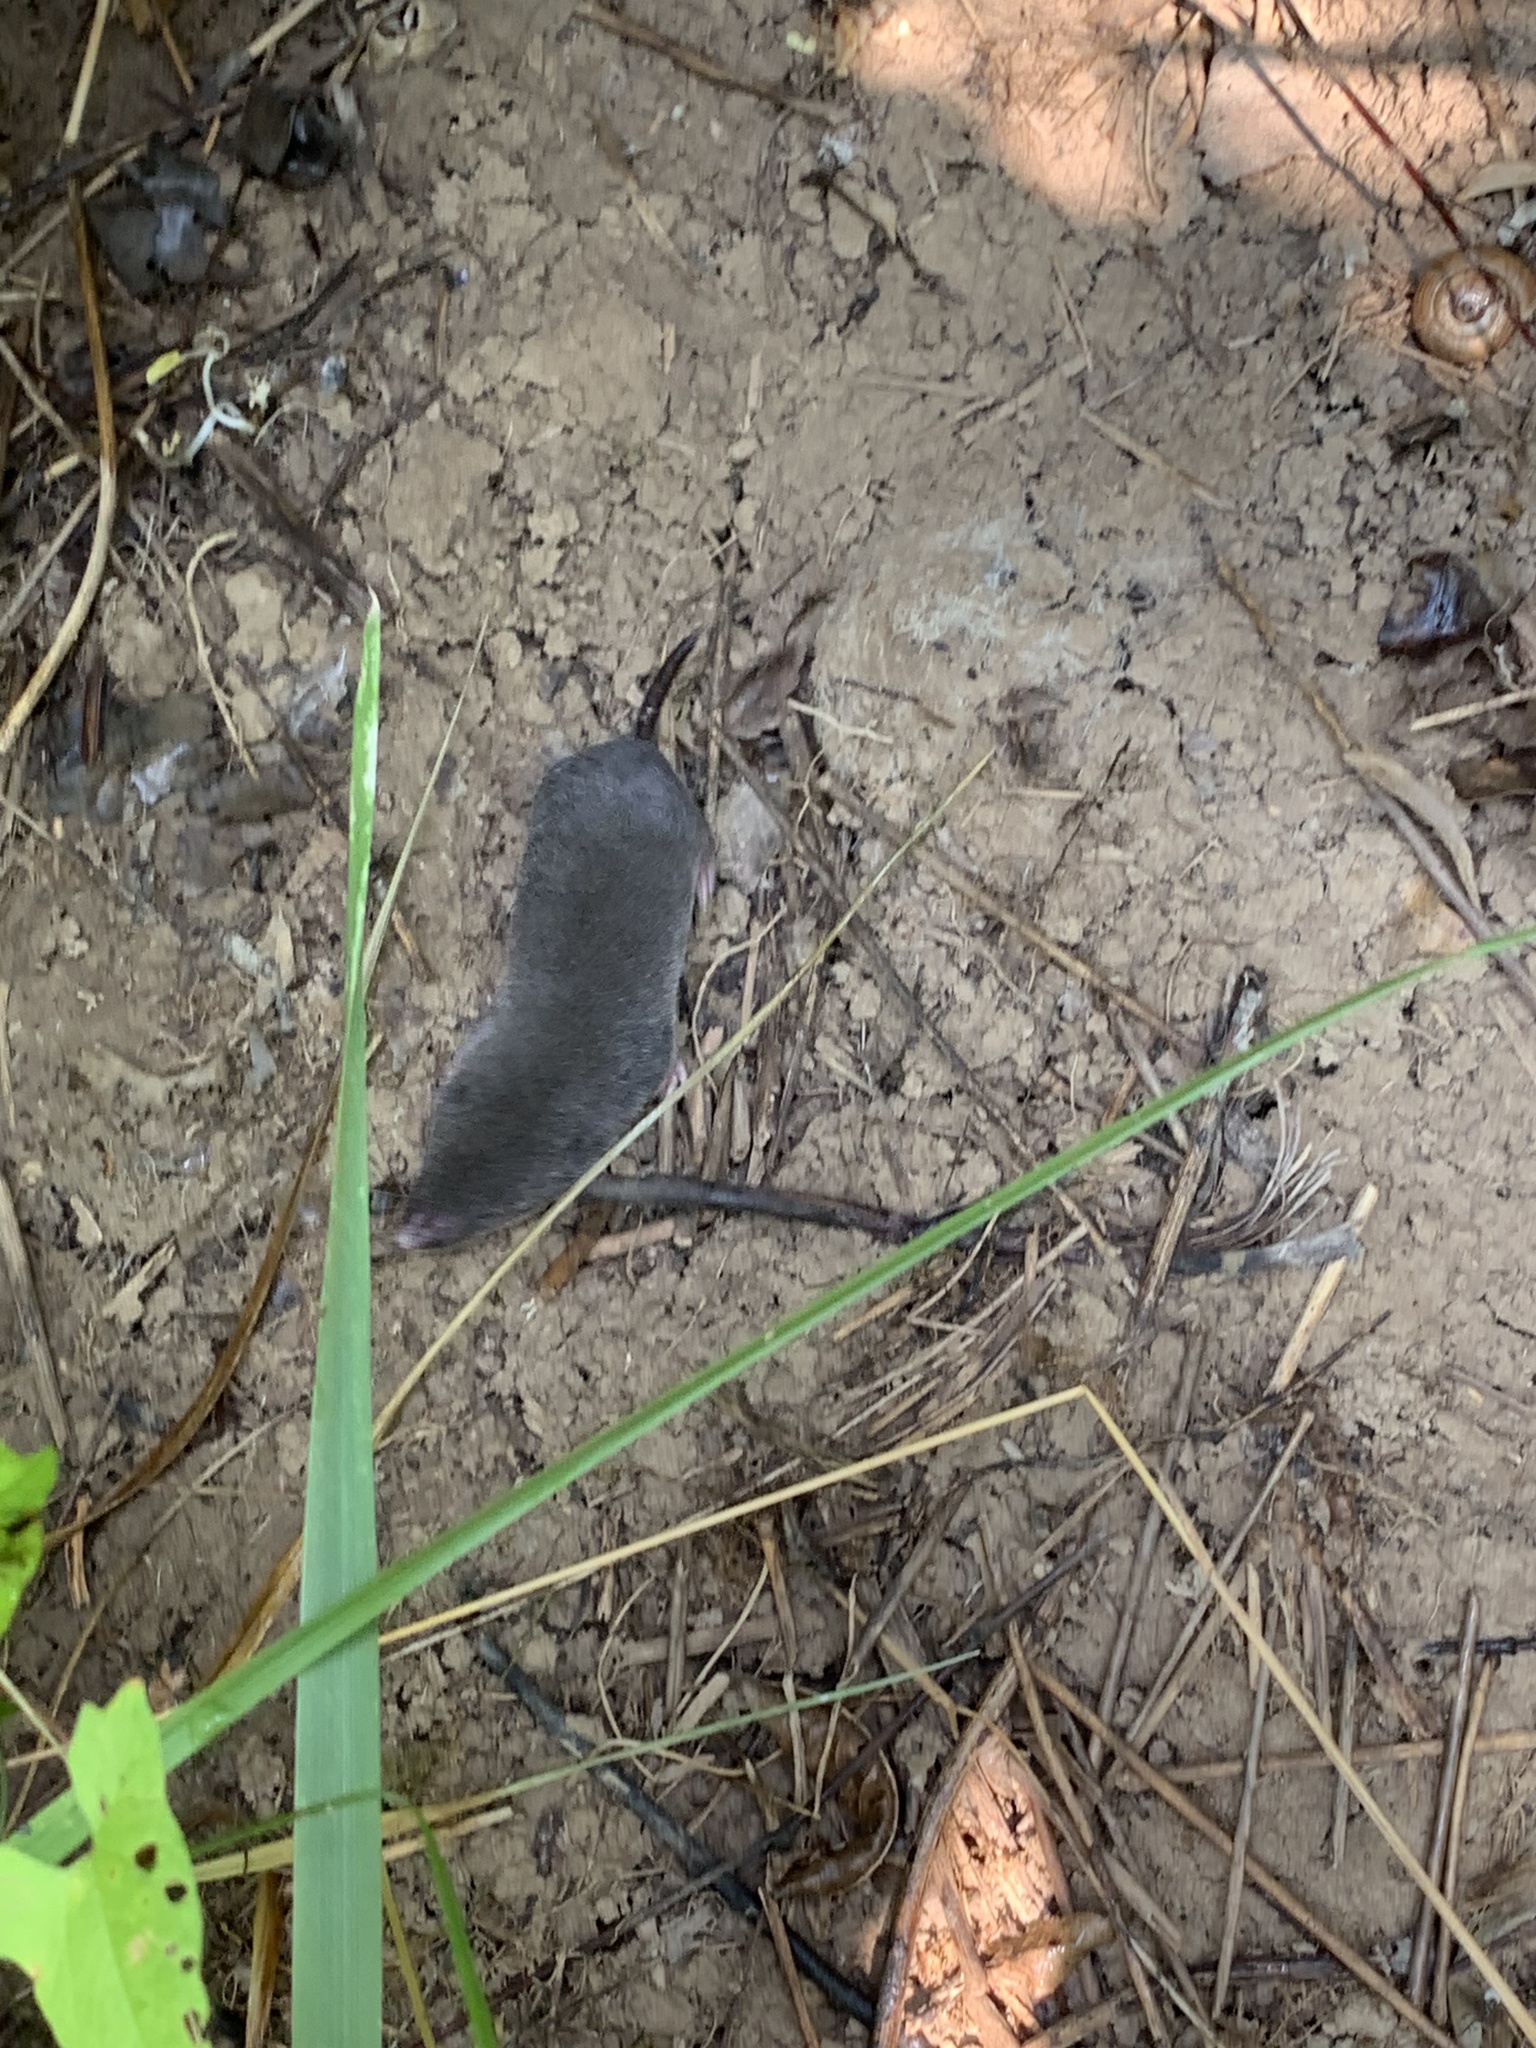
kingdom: Animalia
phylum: Chordata
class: Mammalia
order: Soricomorpha
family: Soricidae
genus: Blarina
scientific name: Blarina brevicauda
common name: Northern short-tailed shrew
